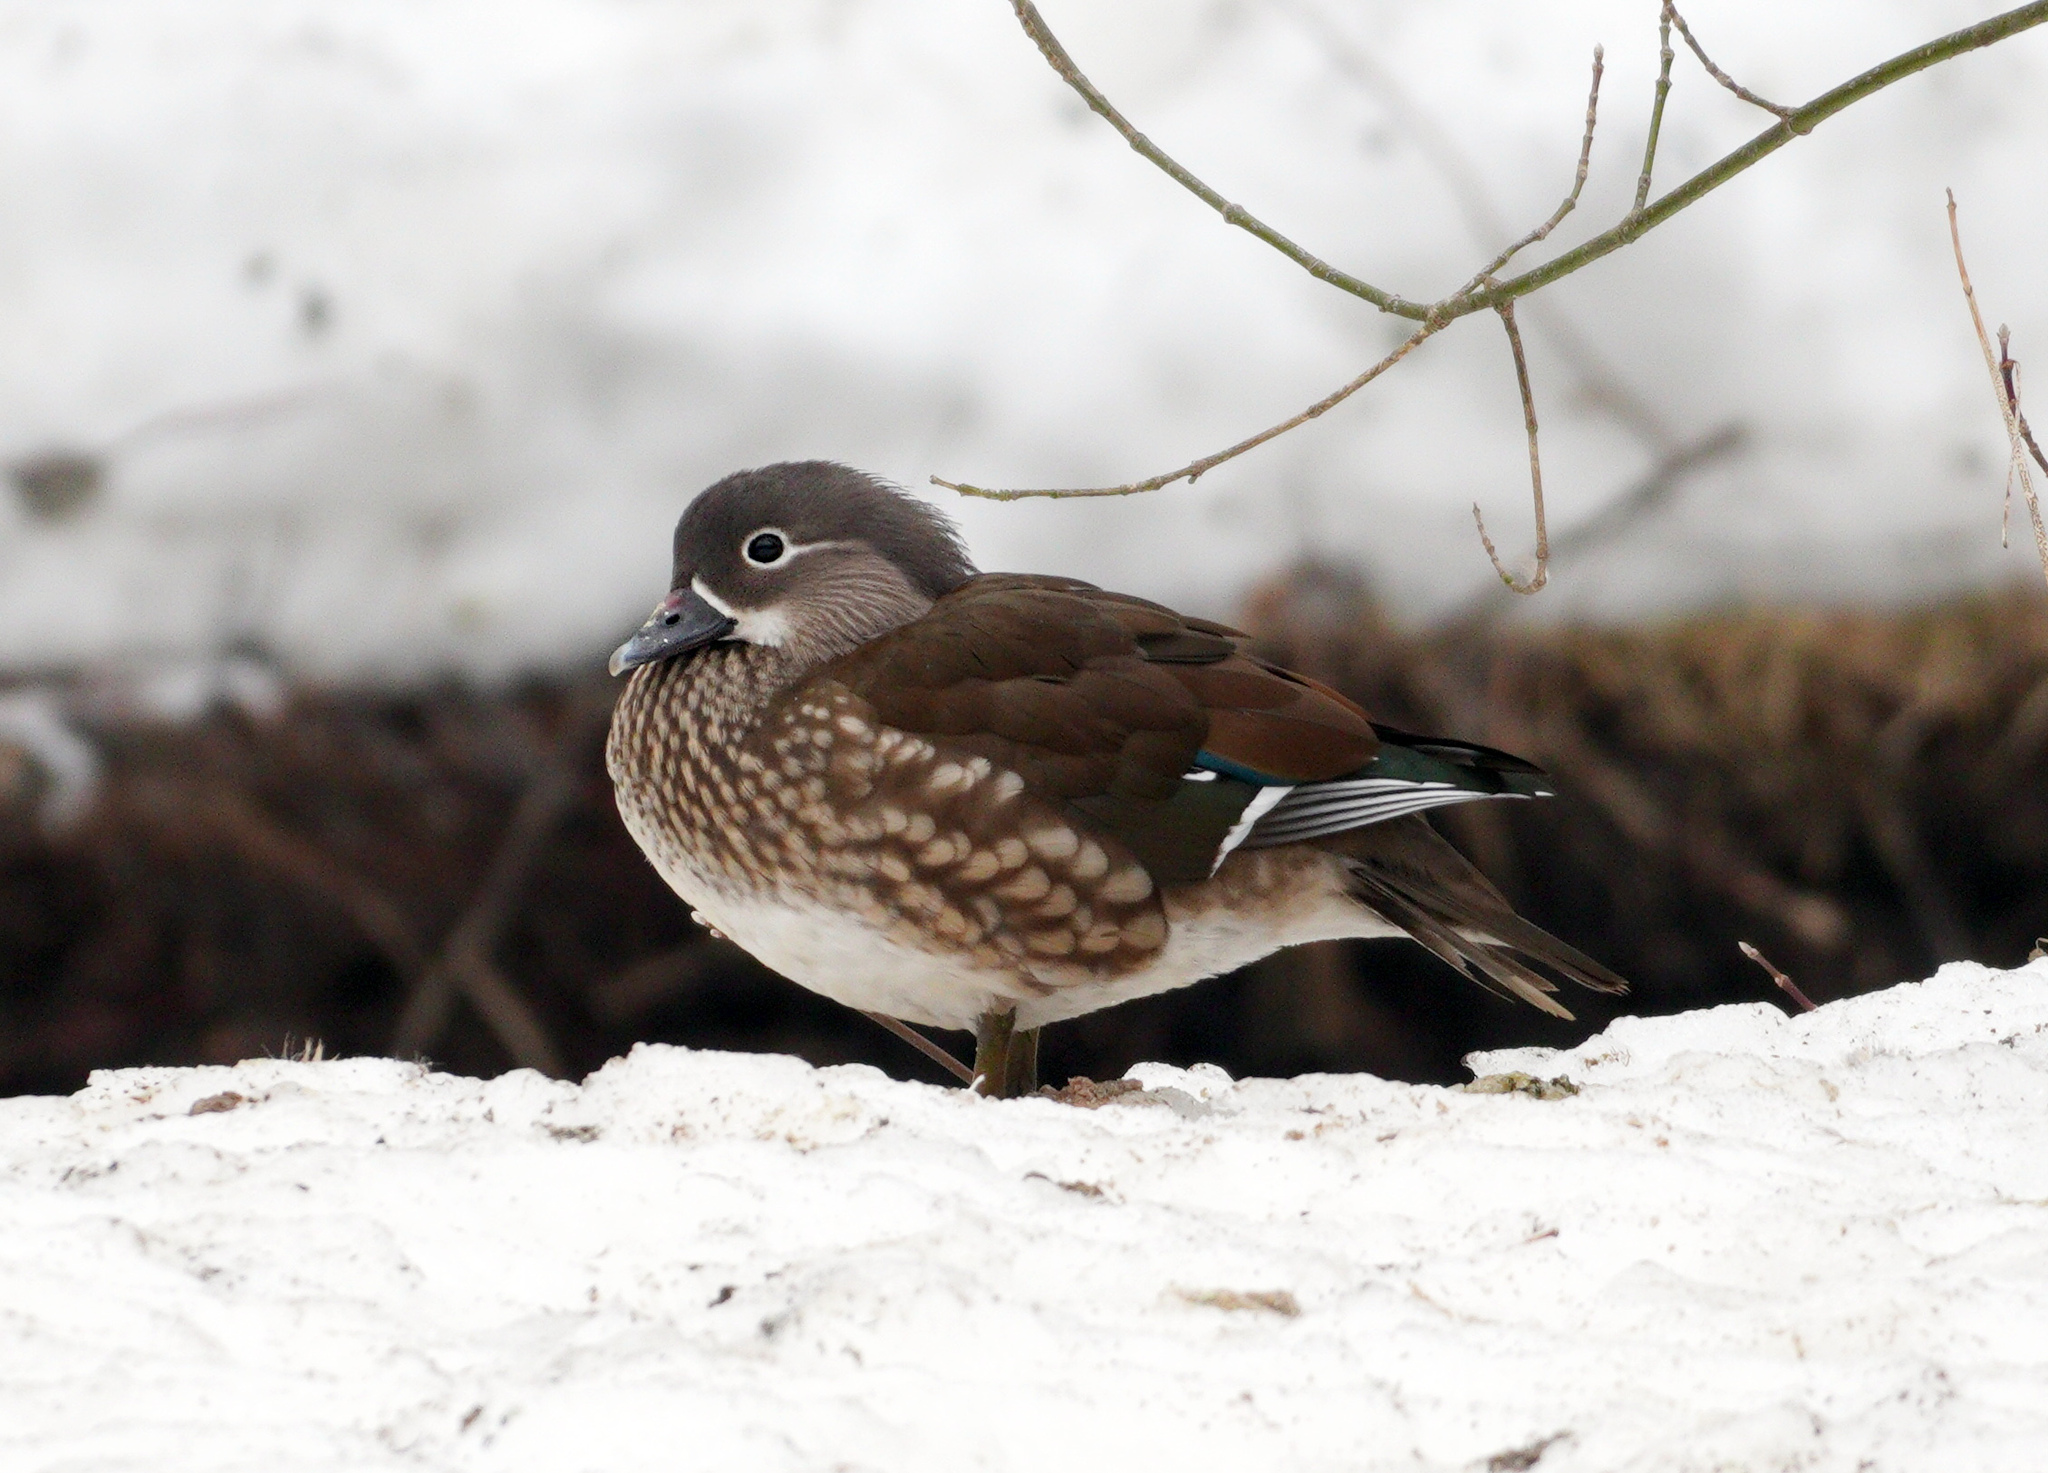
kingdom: Animalia
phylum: Chordata
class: Aves
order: Anseriformes
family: Anatidae
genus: Aix
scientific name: Aix galericulata
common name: Mandarin duck
